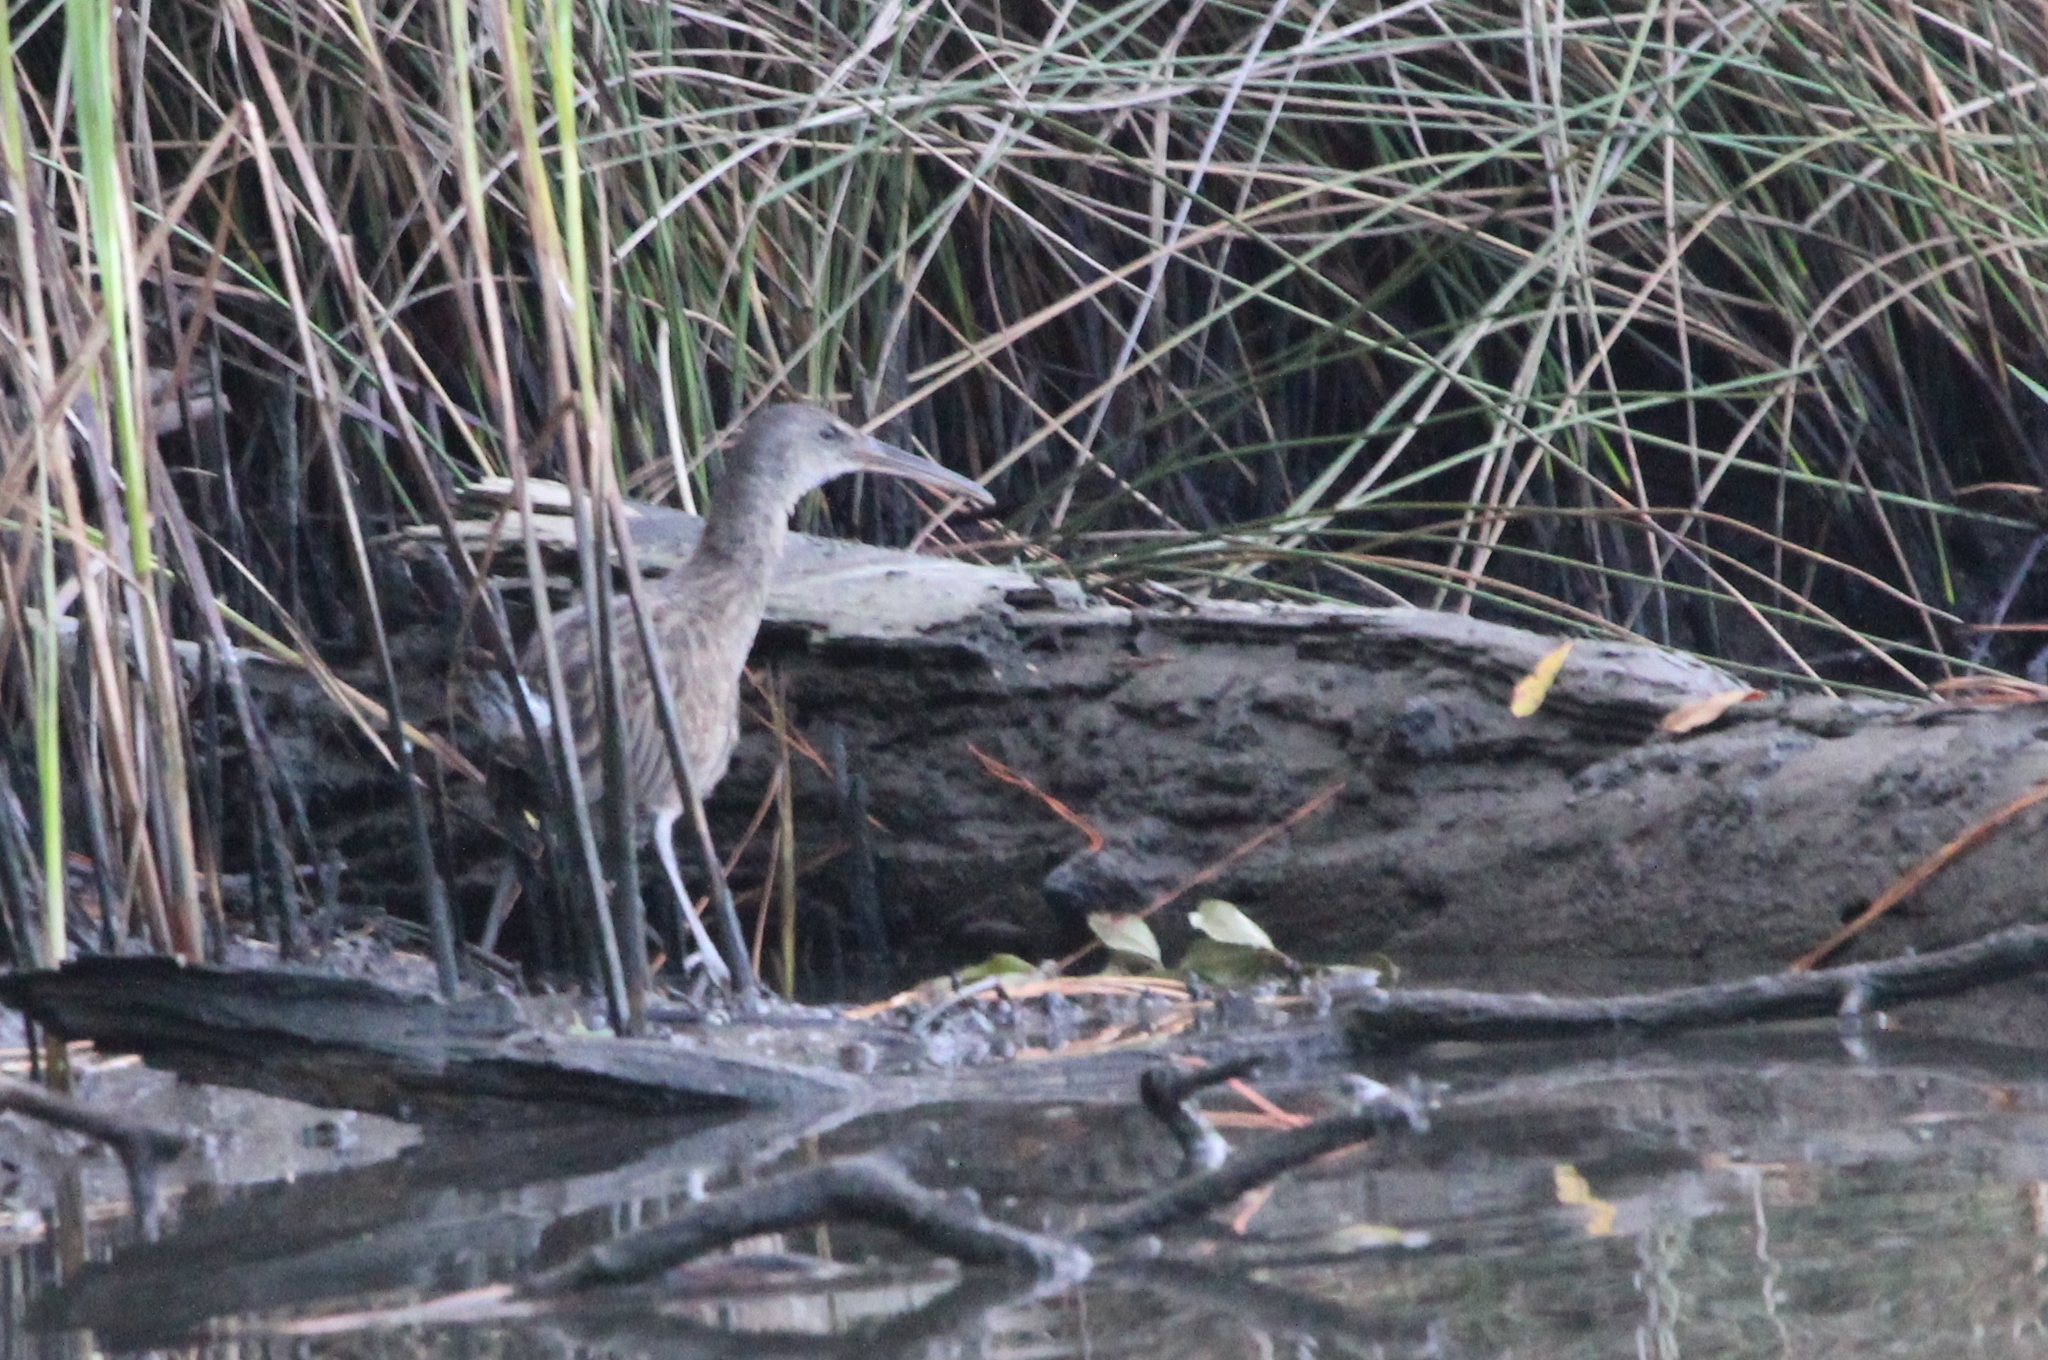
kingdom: Animalia
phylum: Chordata
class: Aves
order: Gruiformes
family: Rallidae
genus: Rallus
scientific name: Rallus crepitans
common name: Clapper rail
